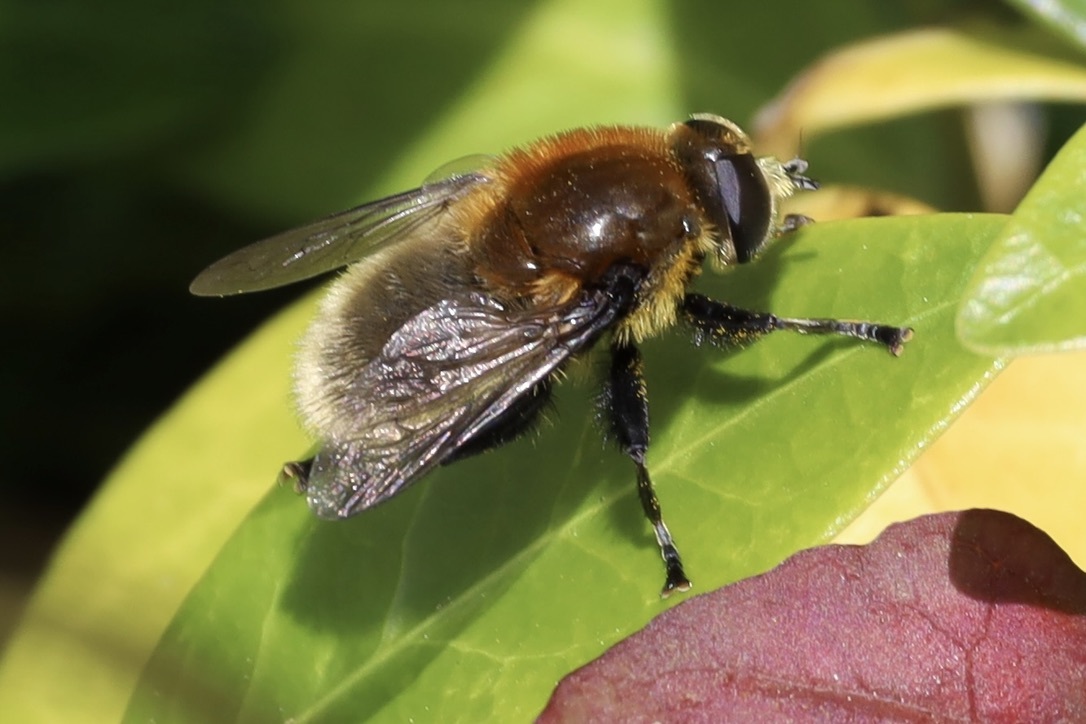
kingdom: Animalia
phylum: Arthropoda
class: Insecta
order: Diptera
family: Syrphidae
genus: Merodon
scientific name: Merodon equestris
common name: Greater bulb-fly
